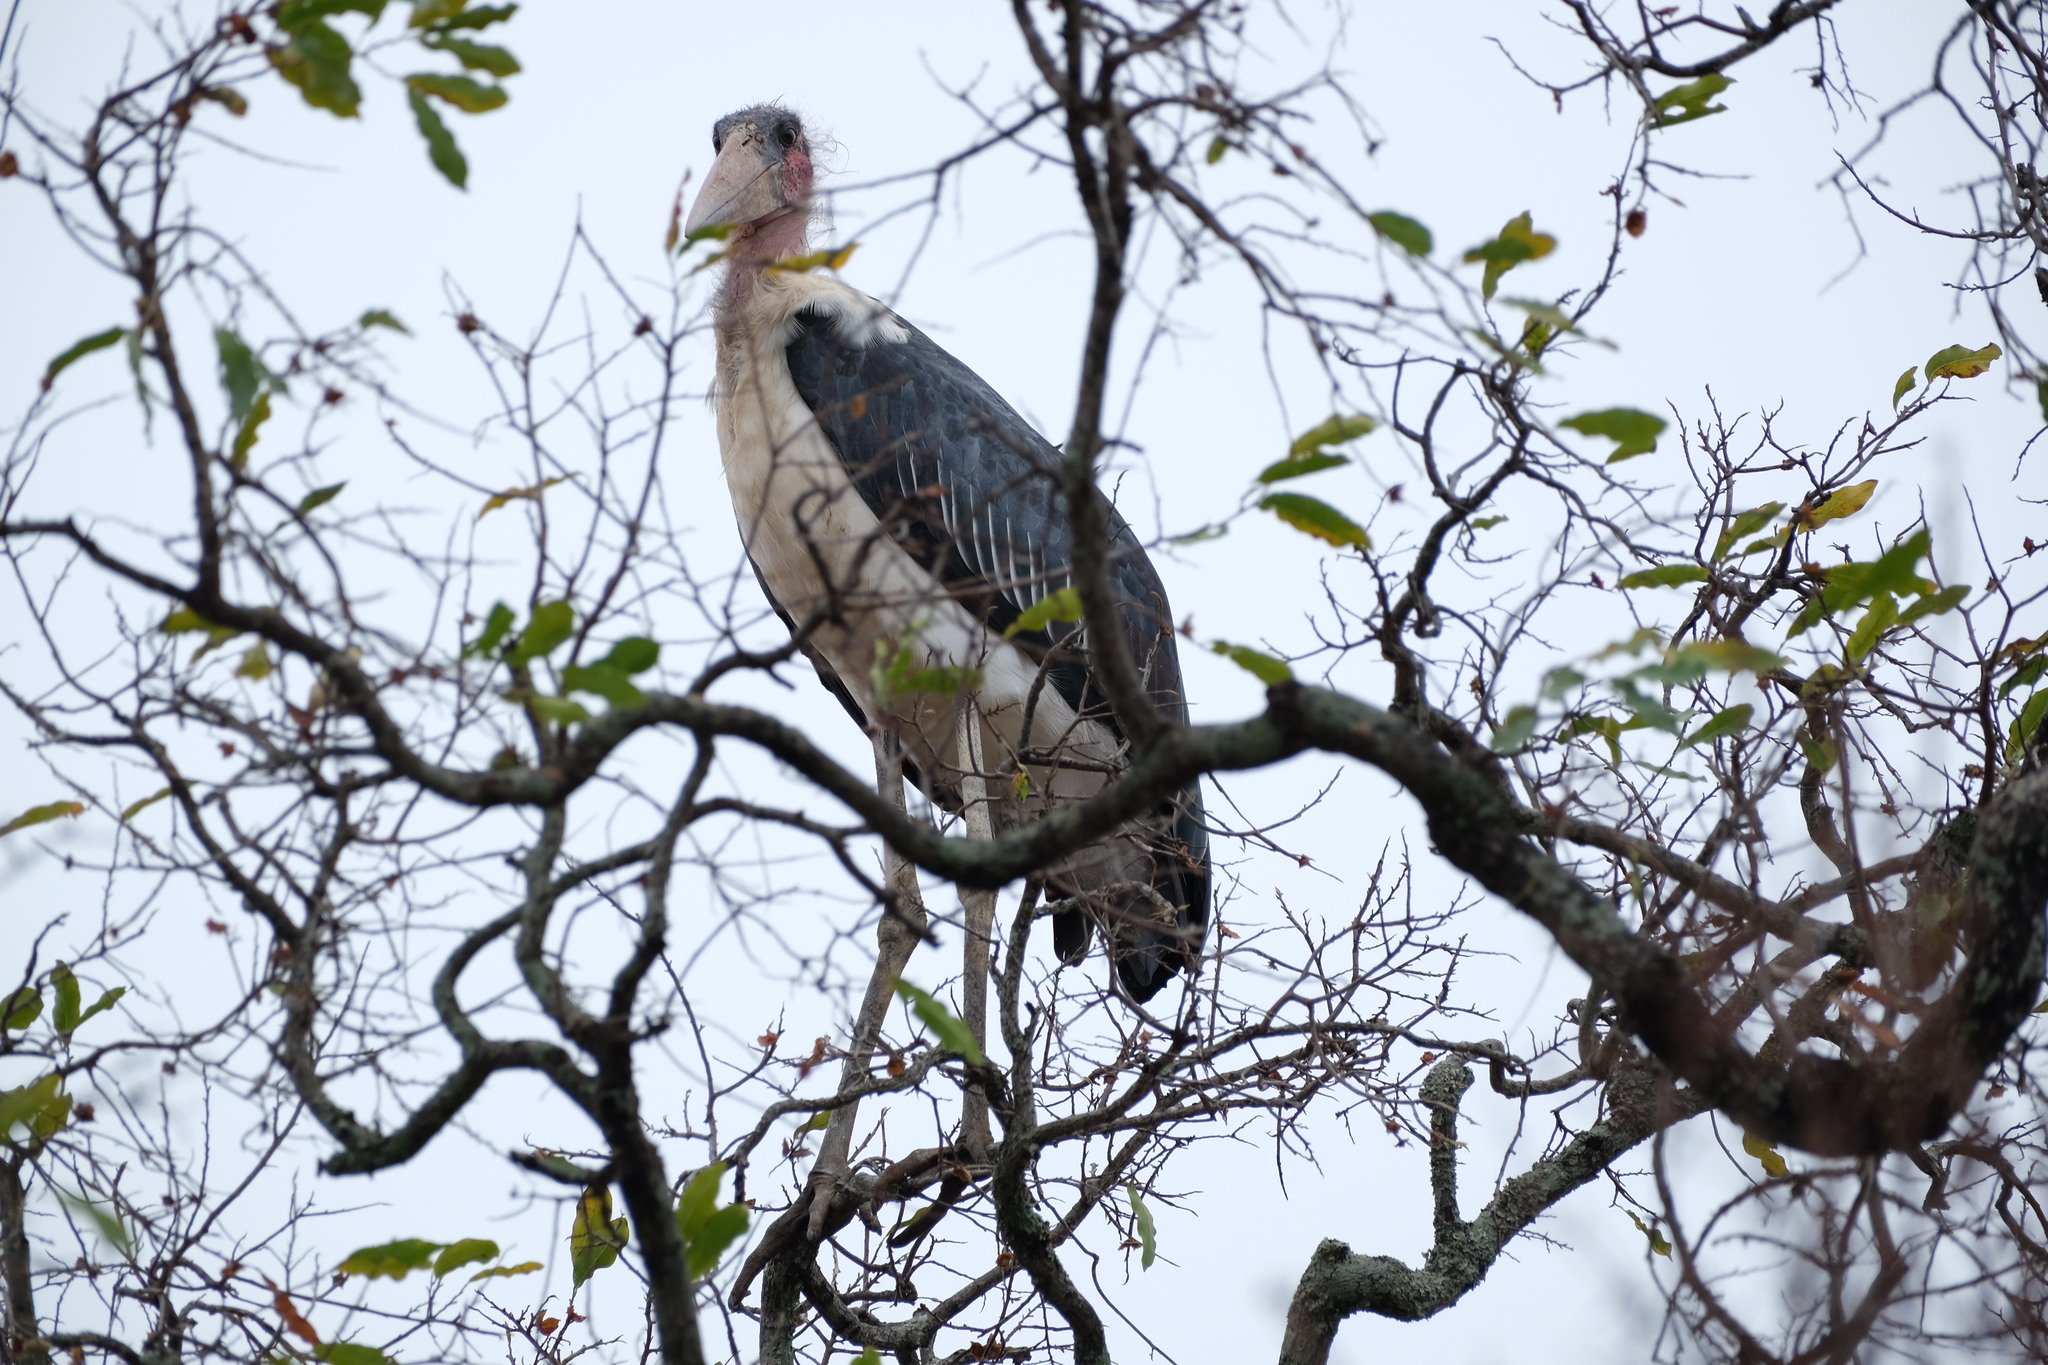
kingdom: Animalia
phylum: Chordata
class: Aves
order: Ciconiiformes
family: Ciconiidae
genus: Leptoptilos
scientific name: Leptoptilos crumenifer
